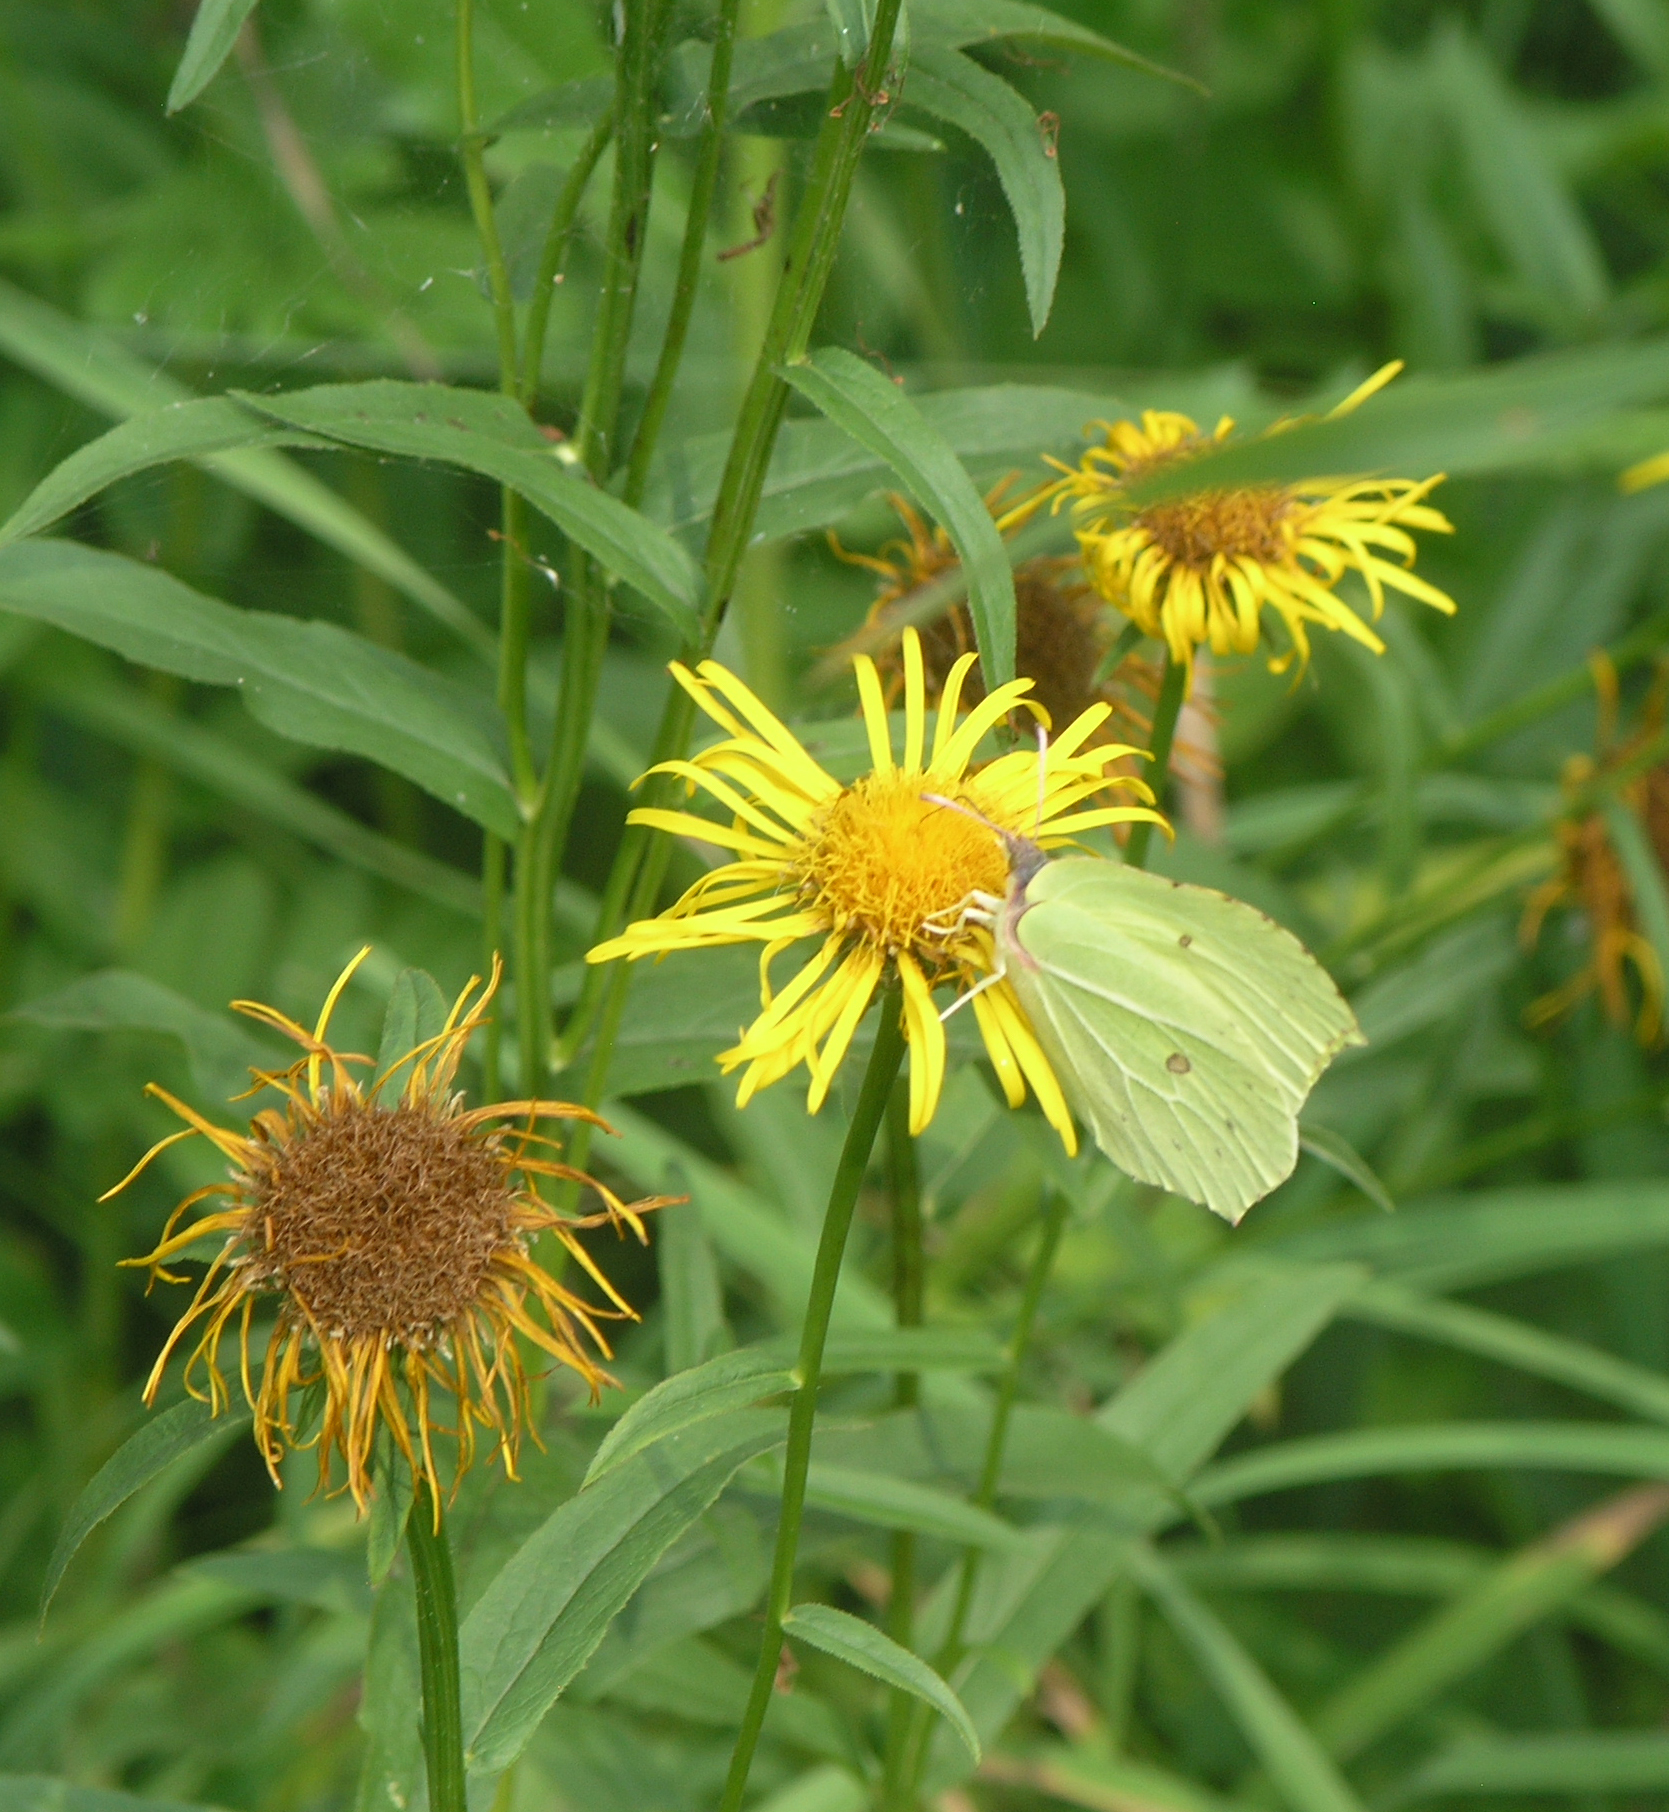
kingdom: Animalia
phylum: Arthropoda
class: Insecta
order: Lepidoptera
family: Pieridae
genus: Gonepteryx
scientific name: Gonepteryx rhamni
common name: Brimstone
